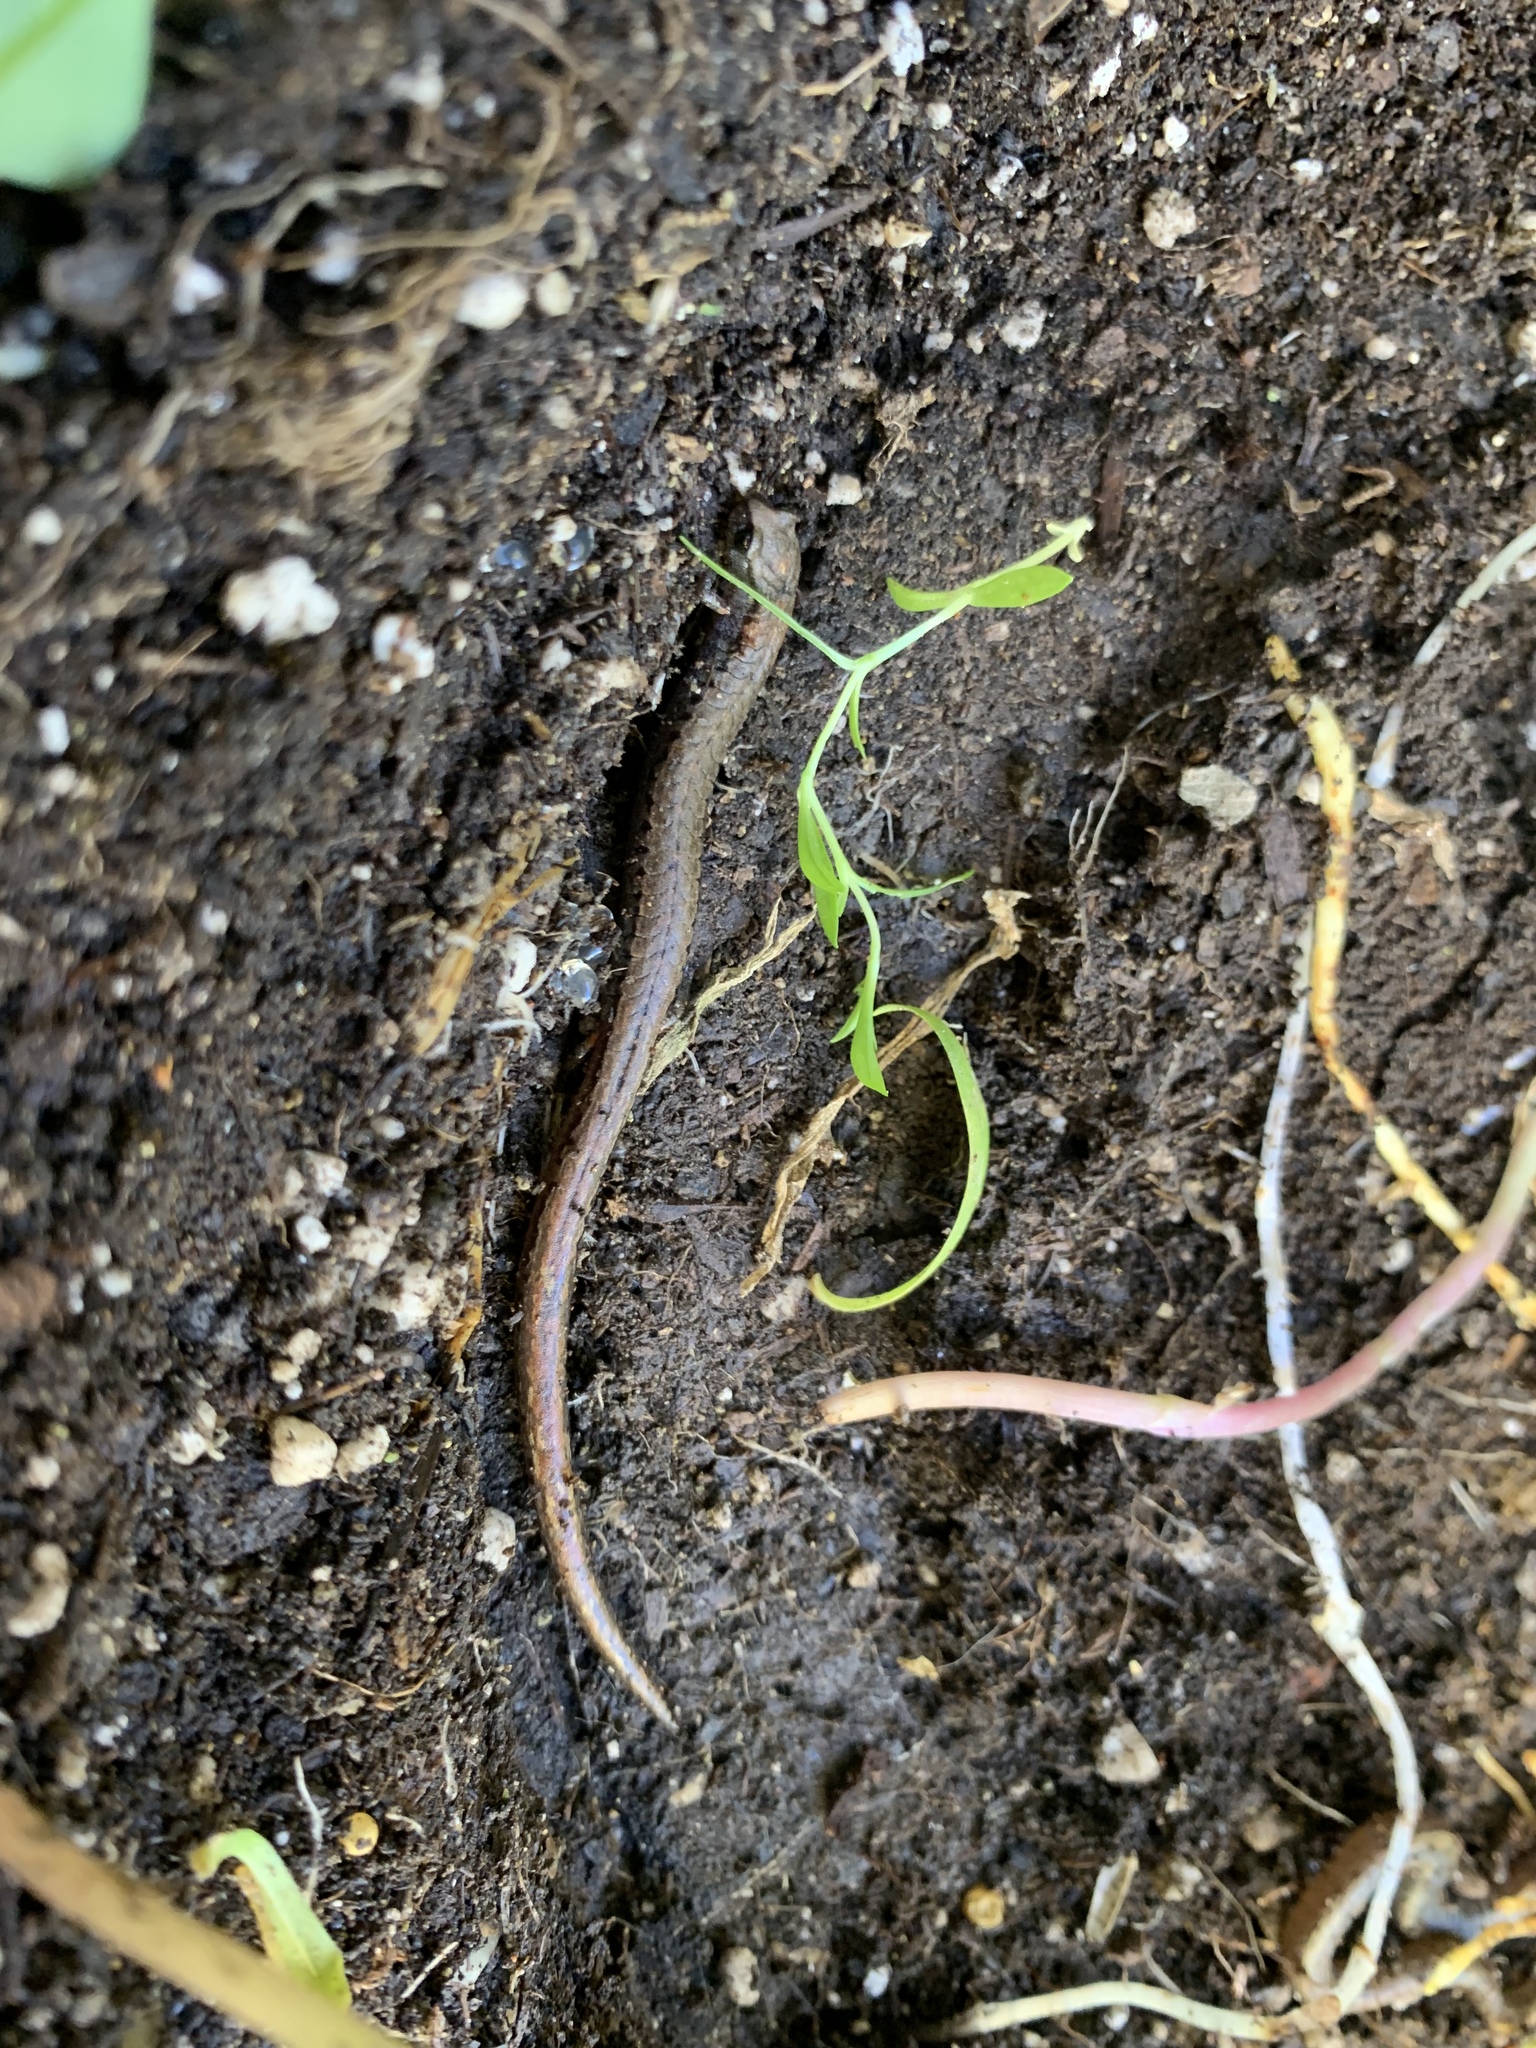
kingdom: Animalia
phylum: Chordata
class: Amphibia
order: Caudata
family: Plethodontidae
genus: Batrachoseps
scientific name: Batrachoseps attenuatus
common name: California slender salamander
